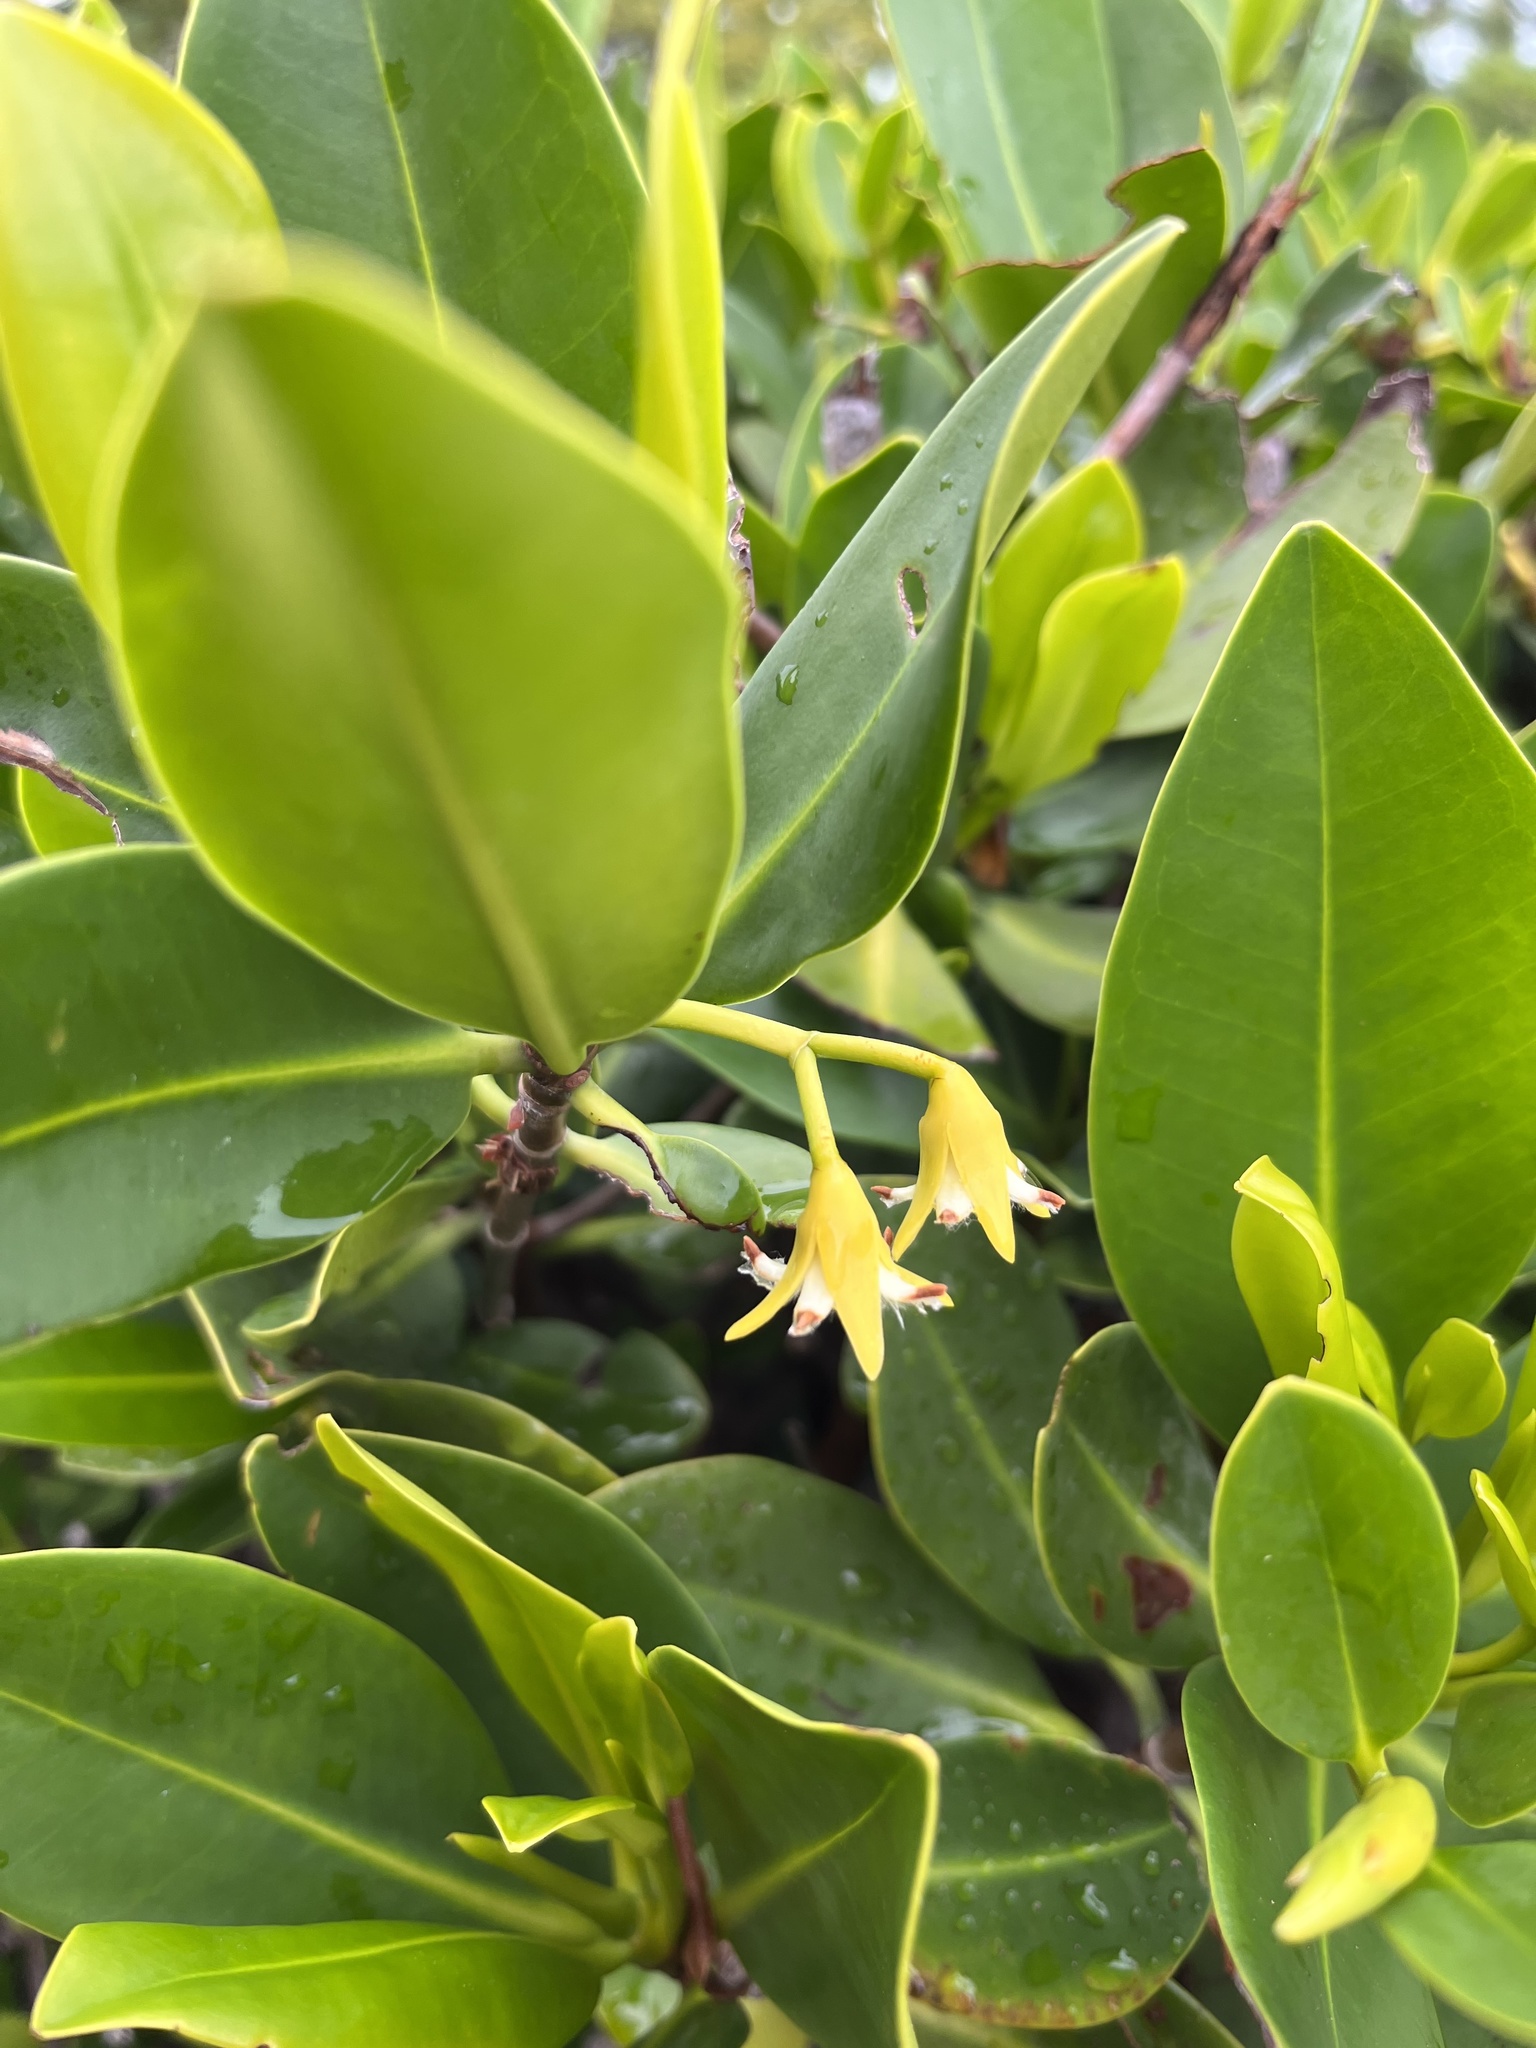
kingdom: Plantae
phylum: Tracheophyta
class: Magnoliopsida
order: Malpighiales
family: Rhizophoraceae
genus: Rhizophora
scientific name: Rhizophora mangle
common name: Red mangrove
